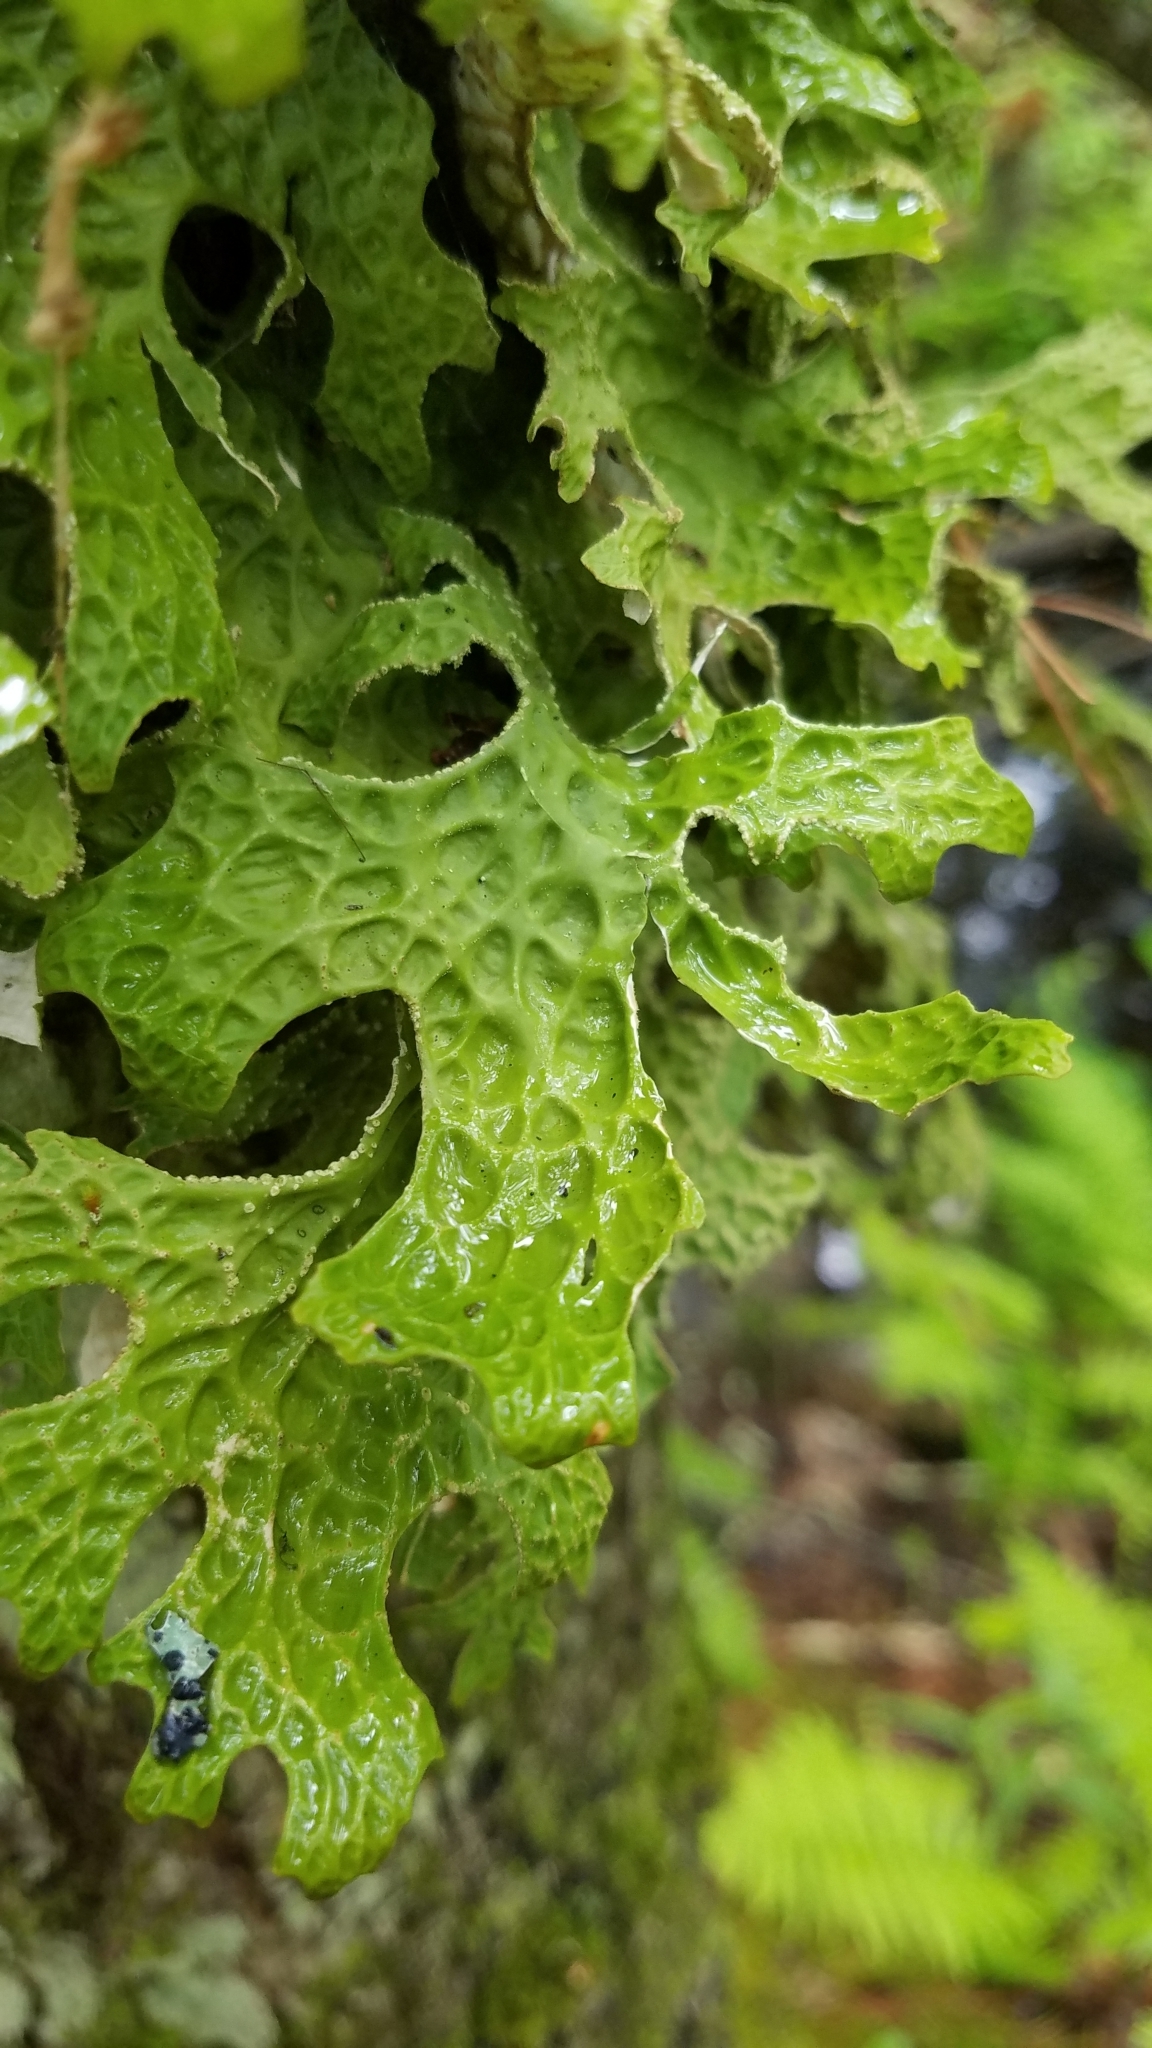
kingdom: Fungi
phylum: Ascomycota
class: Lecanoromycetes
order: Peltigerales
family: Lobariaceae
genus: Lobaria
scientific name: Lobaria pulmonaria
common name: Lungwort
